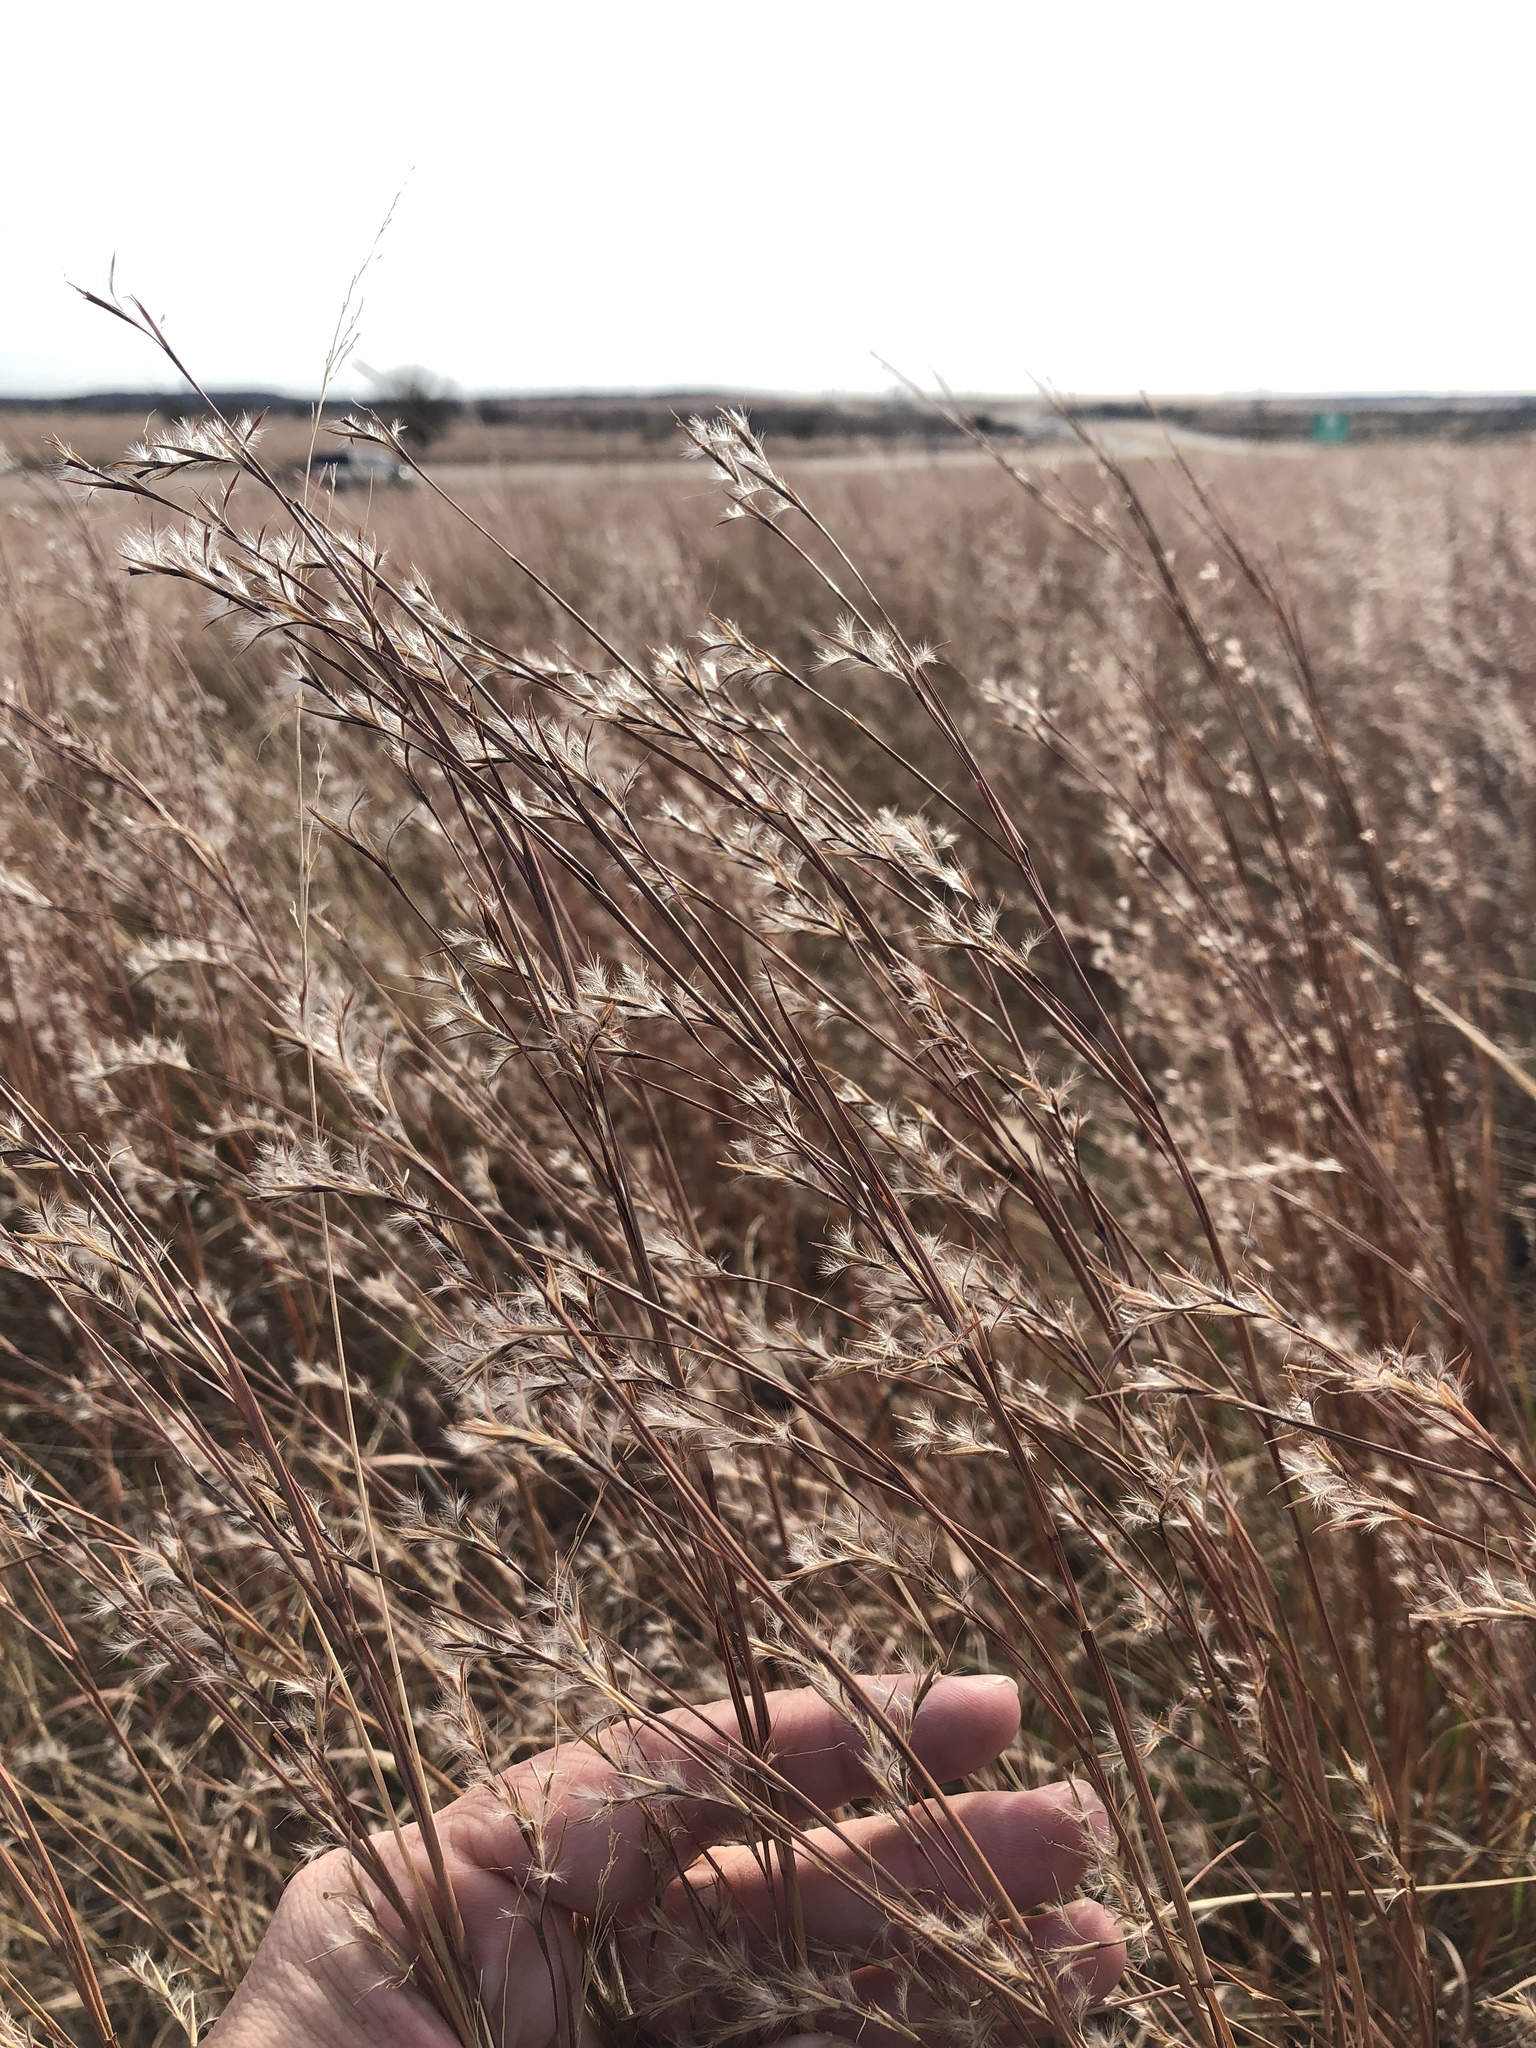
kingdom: Plantae
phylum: Tracheophyta
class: Liliopsida
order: Poales
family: Poaceae
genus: Schizachyrium
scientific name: Schizachyrium scoparium
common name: Little bluestem
